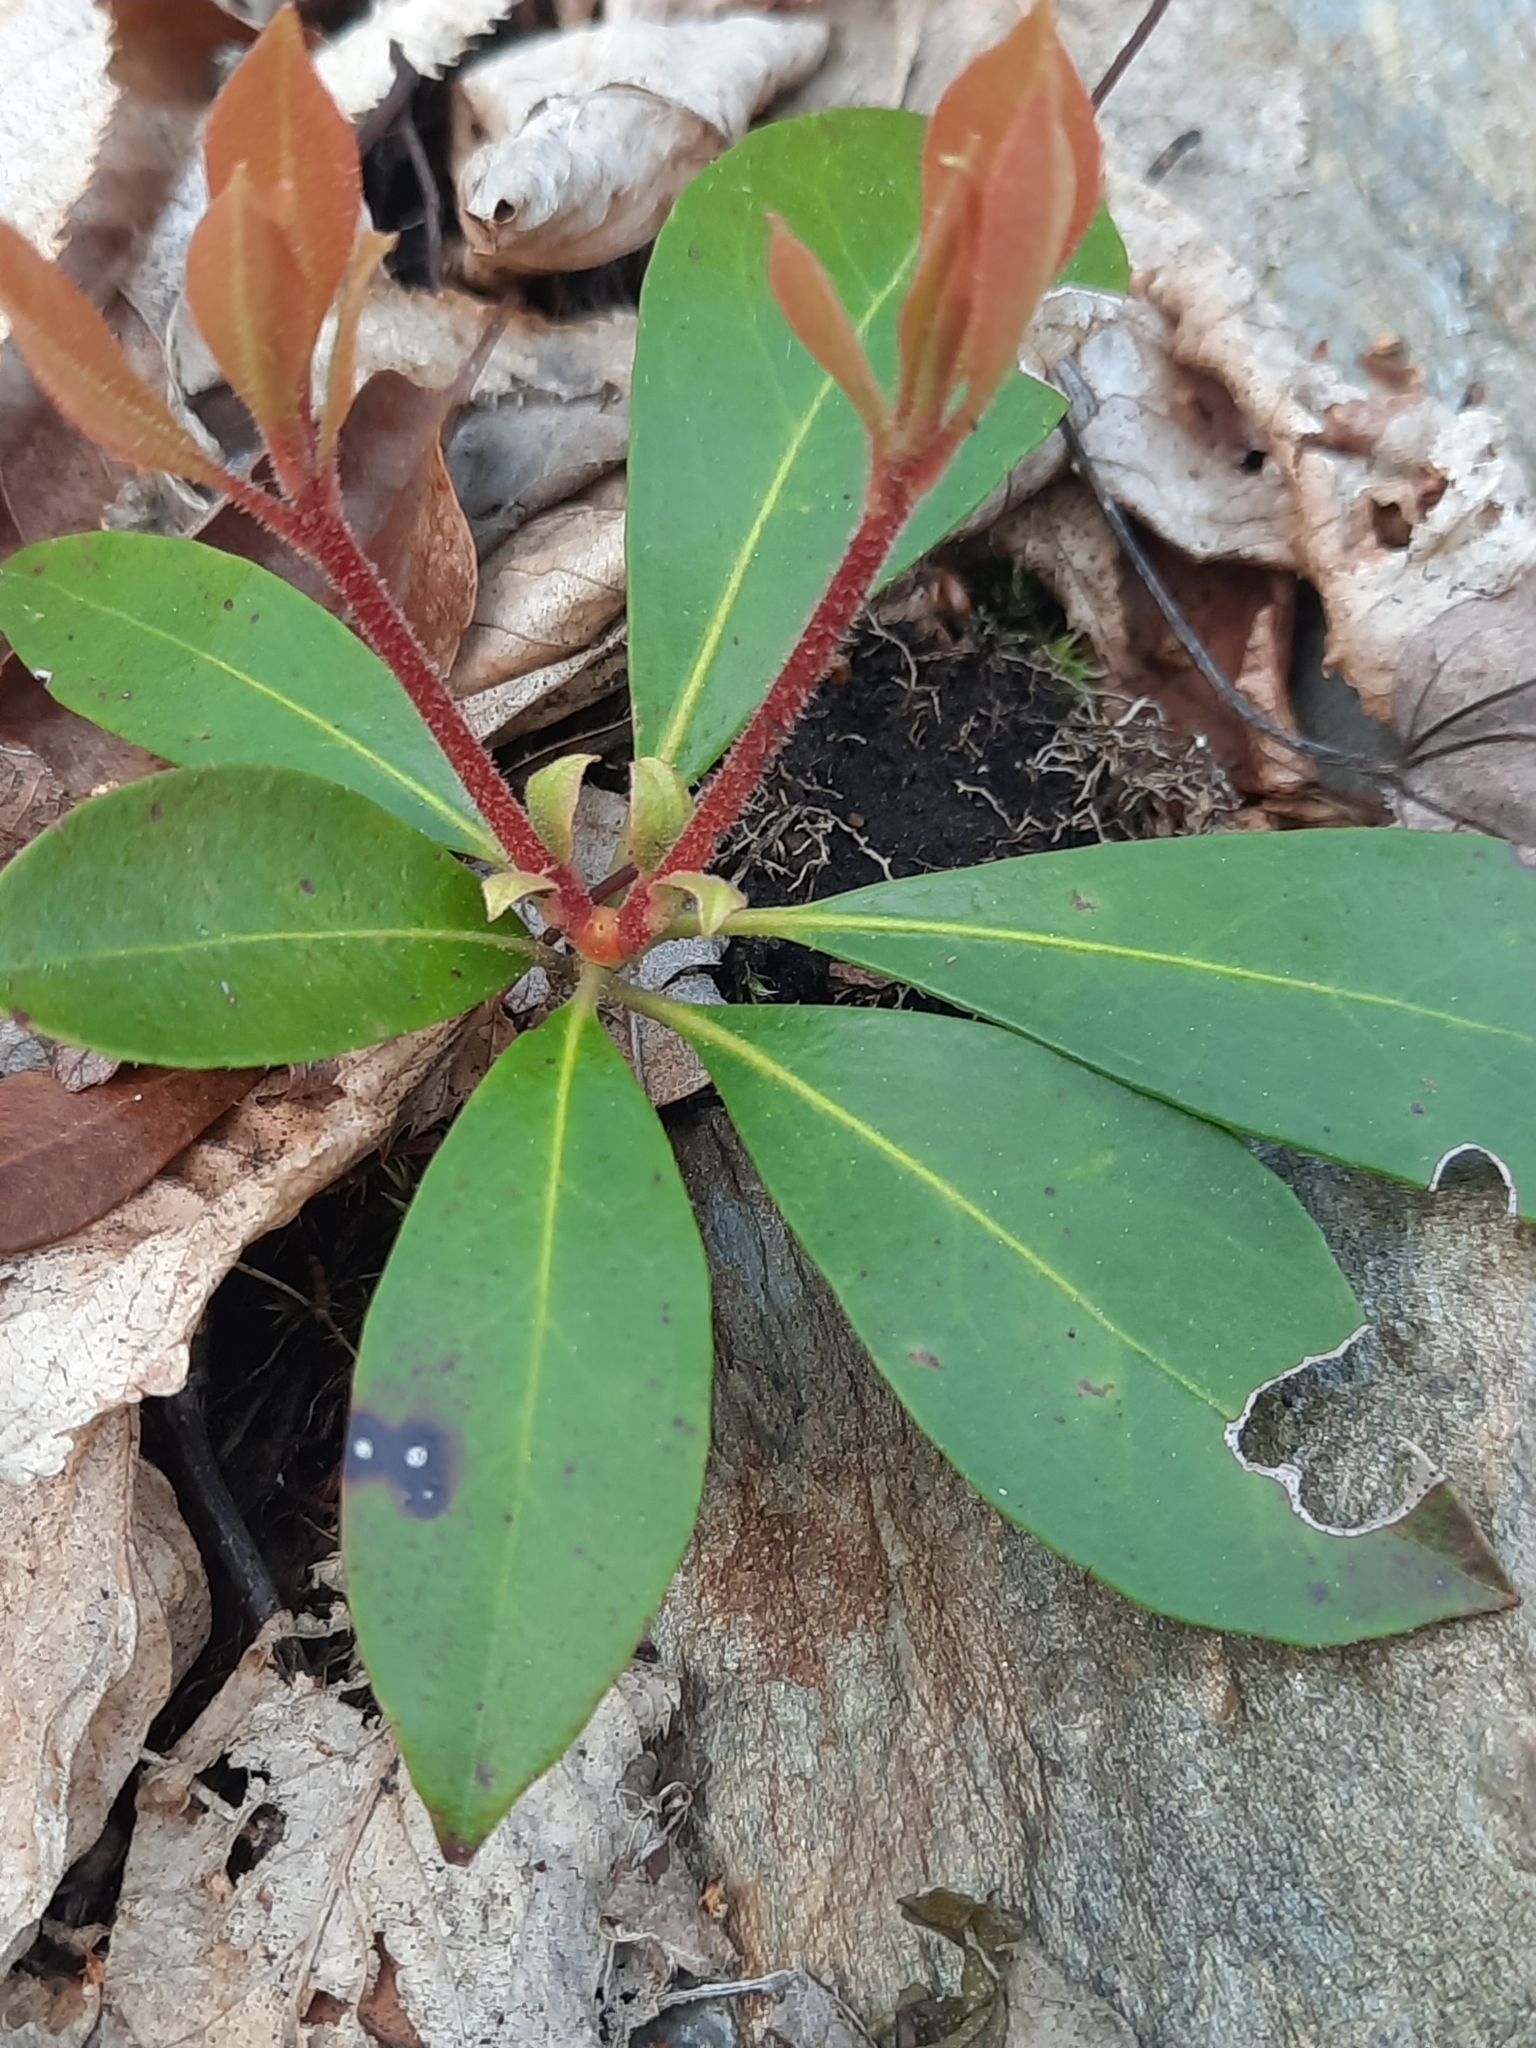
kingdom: Plantae
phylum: Tracheophyta
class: Magnoliopsida
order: Ericales
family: Ericaceae
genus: Kalmia
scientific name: Kalmia latifolia
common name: Mountain-laurel
